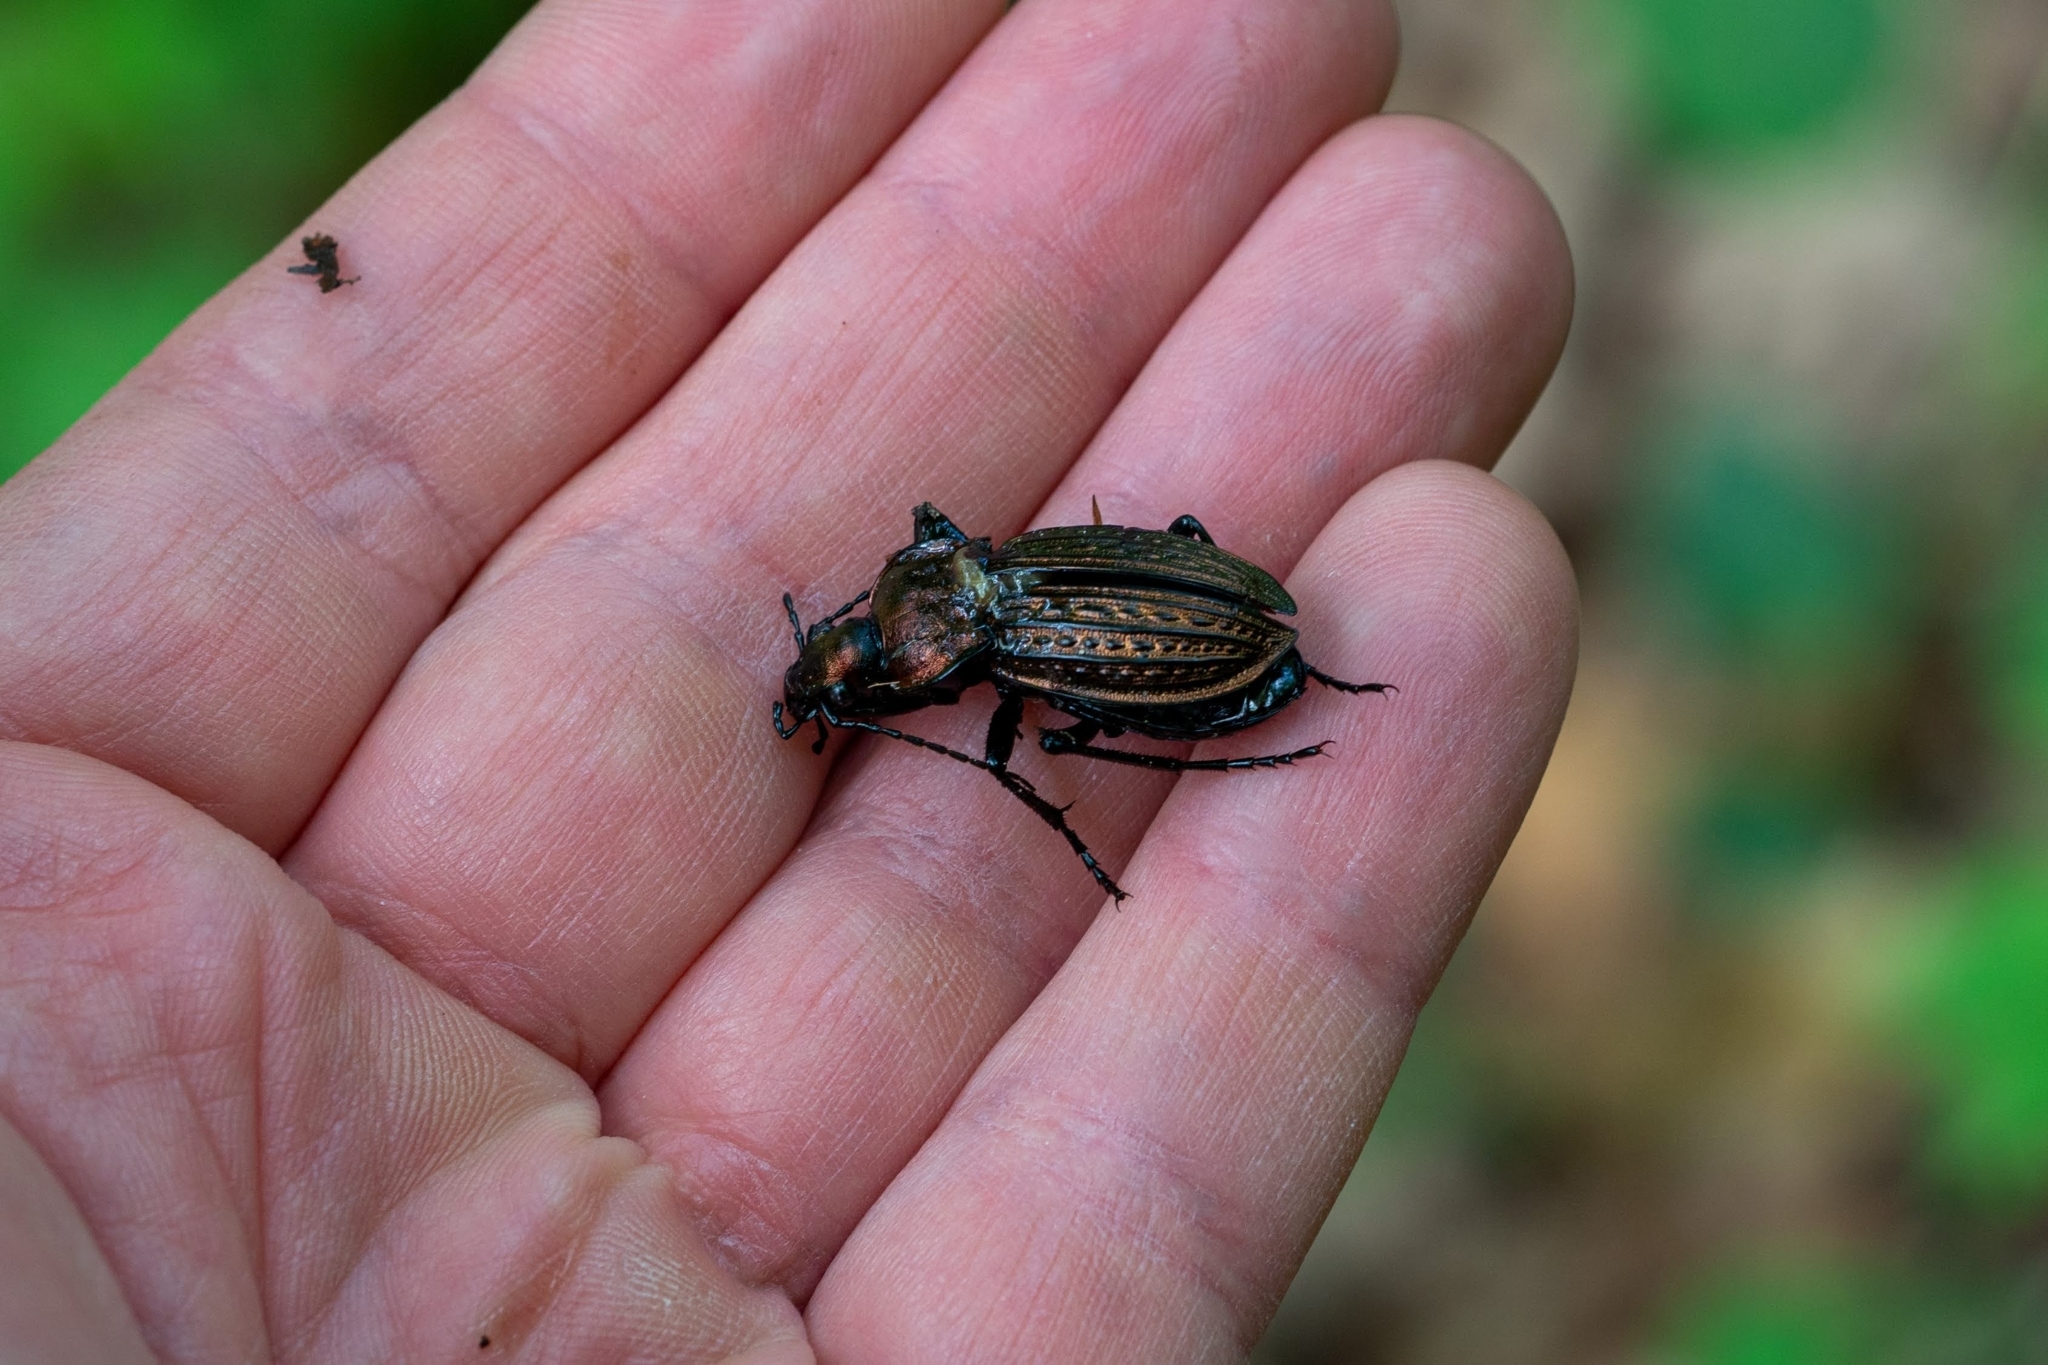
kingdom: Animalia
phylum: Arthropoda
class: Insecta
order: Coleoptera
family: Carabidae
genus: Carabus
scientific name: Carabus ulrichii
